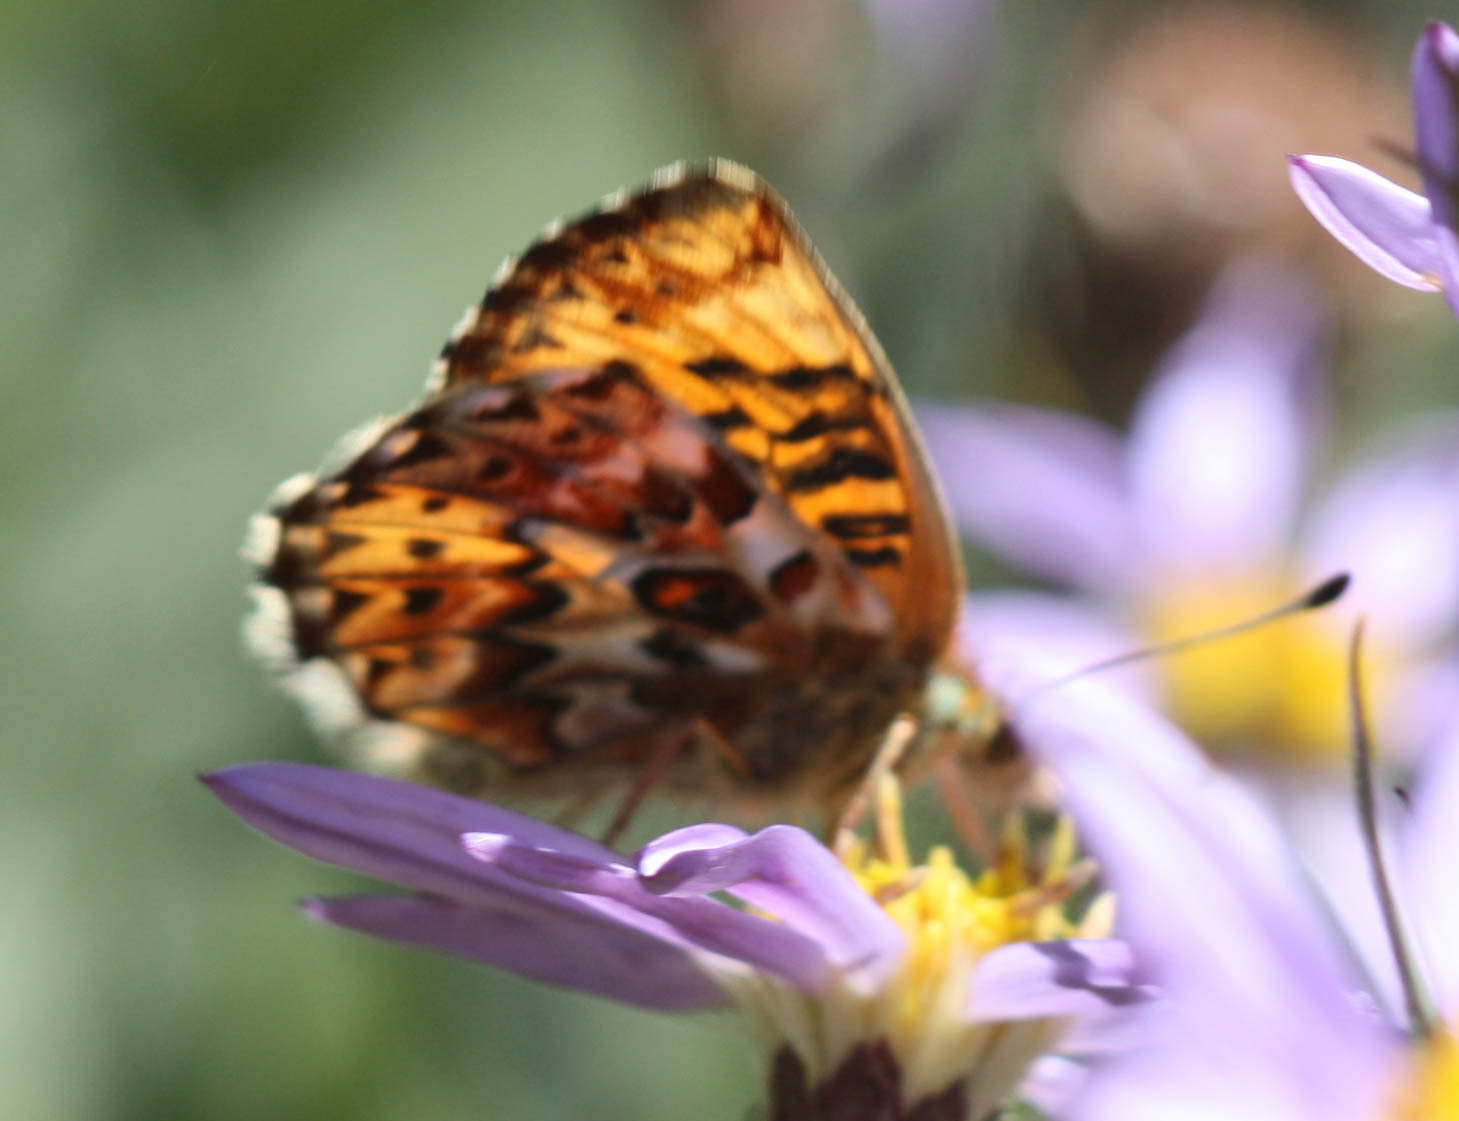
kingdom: Animalia
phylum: Arthropoda
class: Insecta
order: Lepidoptera
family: Nymphalidae
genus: Boloria
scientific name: Boloria chariclea
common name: Arctic fritillary
